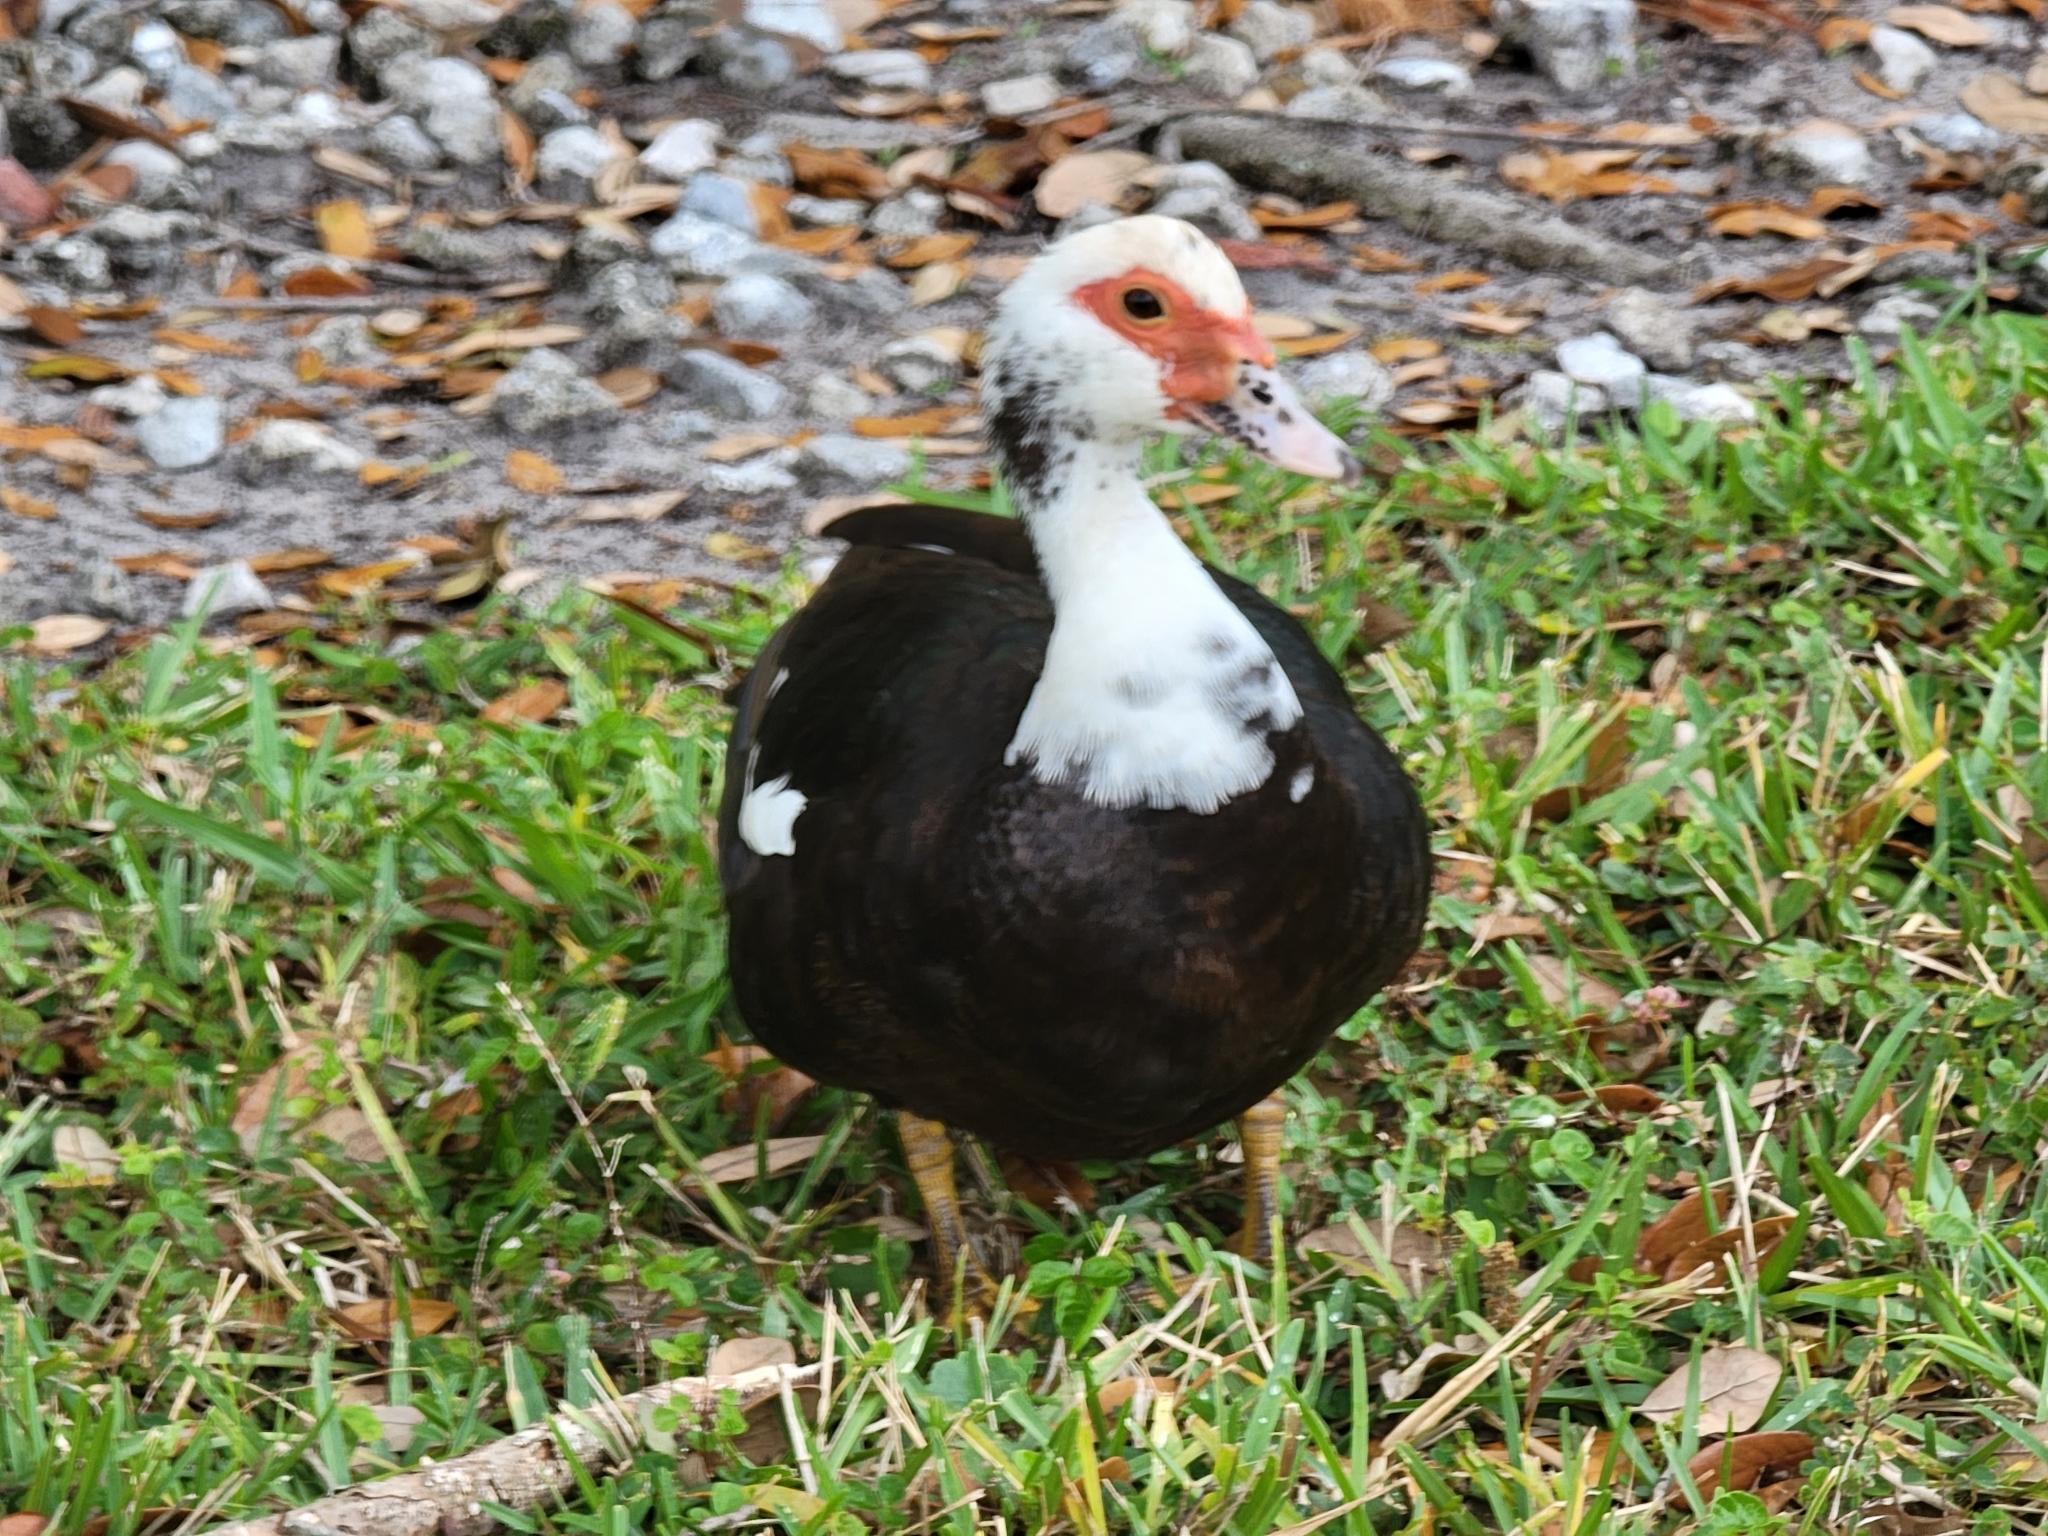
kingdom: Animalia
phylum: Chordata
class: Aves
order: Anseriformes
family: Anatidae
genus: Cairina
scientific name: Cairina moschata
